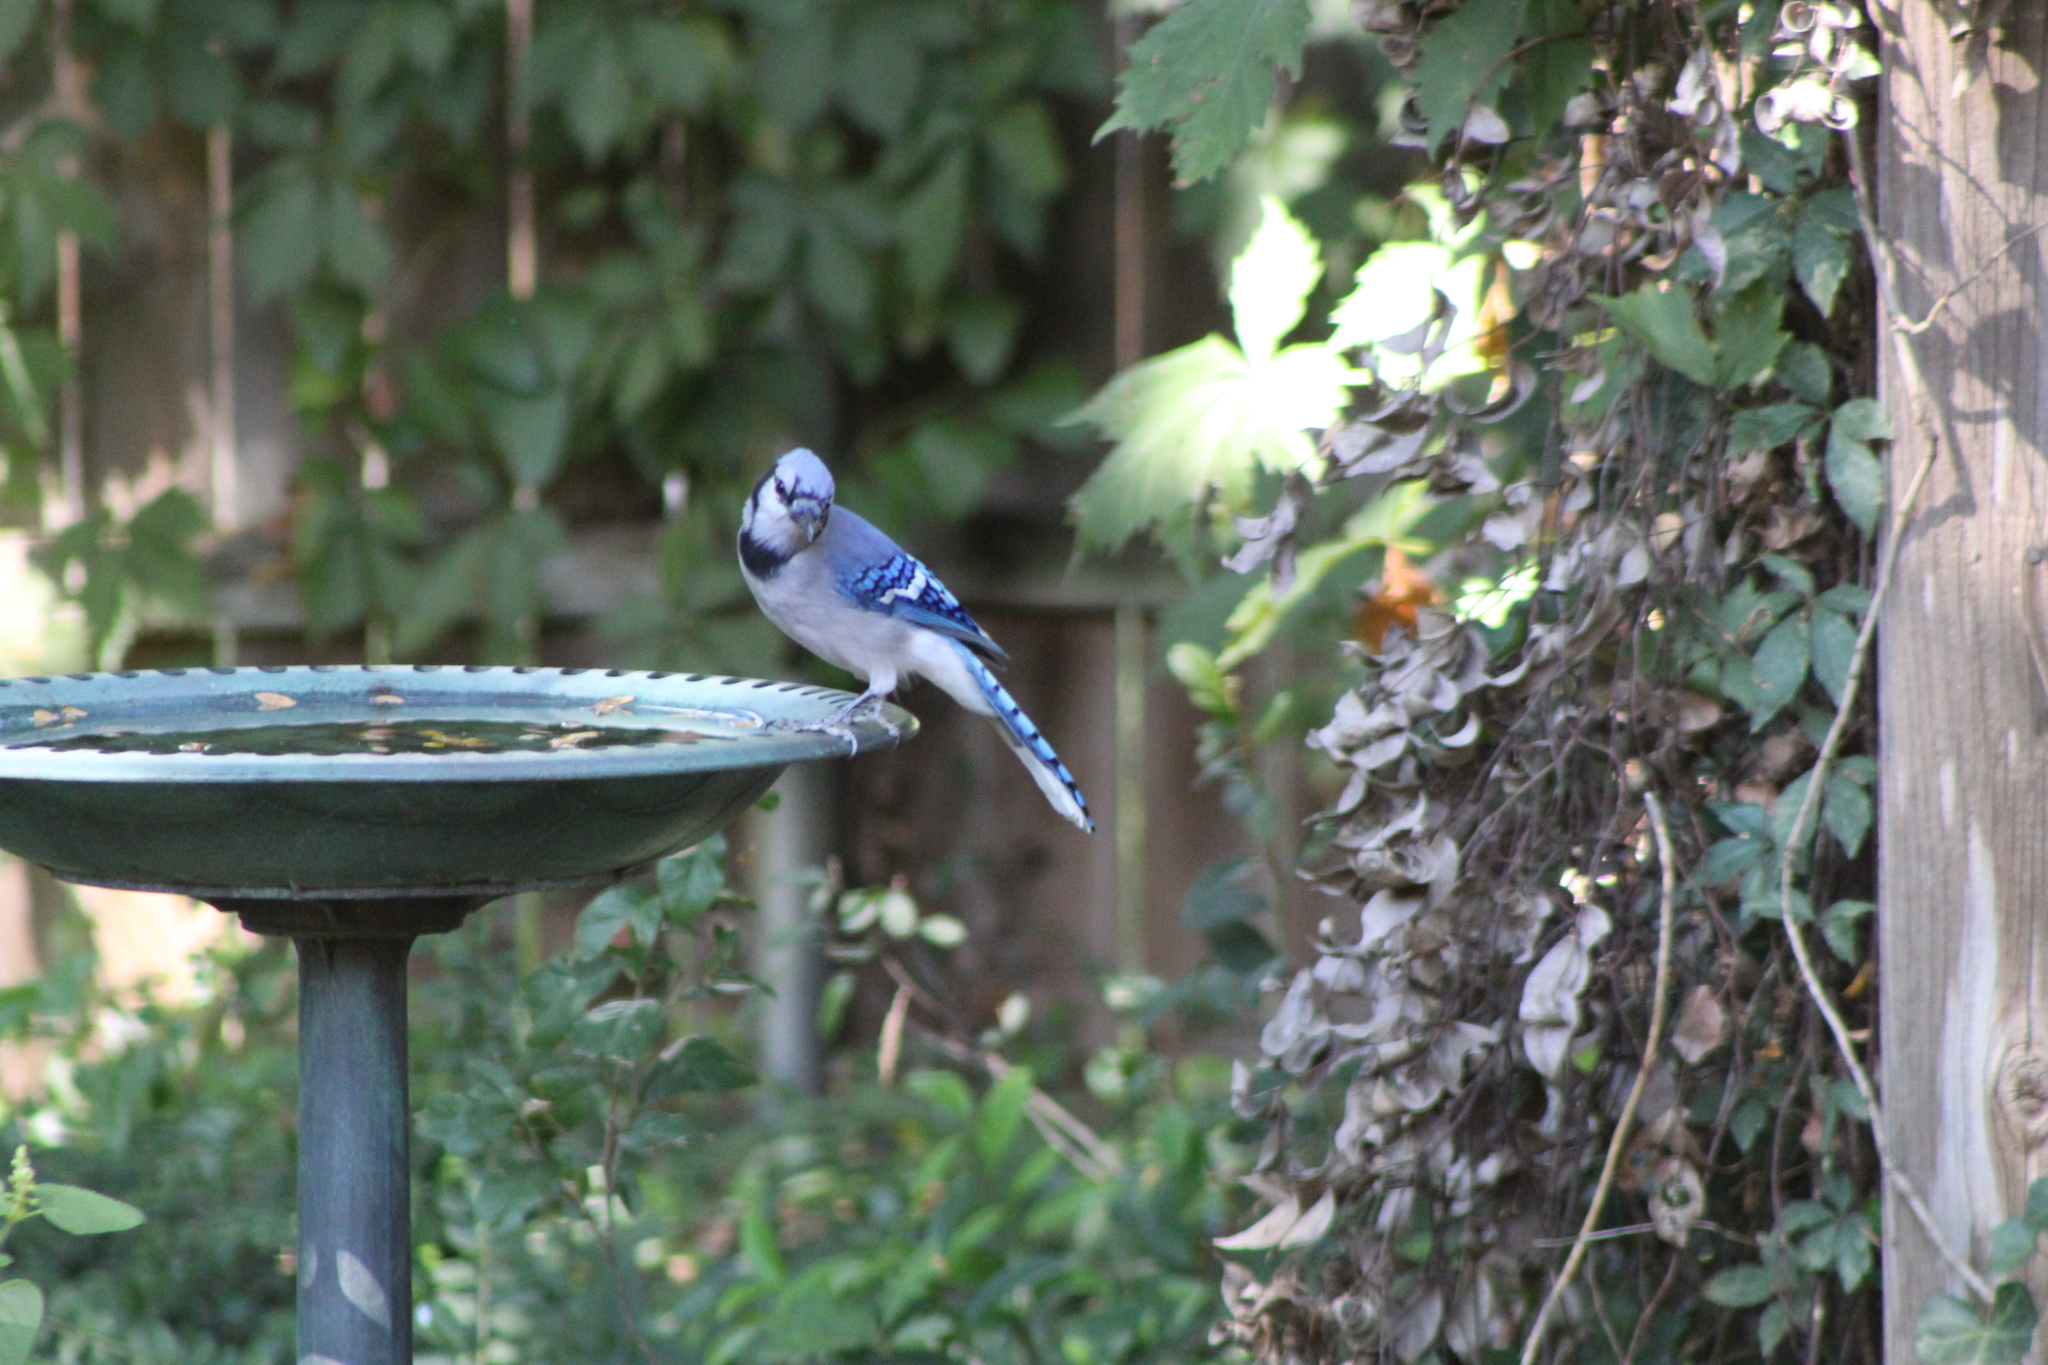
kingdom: Animalia
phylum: Chordata
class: Aves
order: Passeriformes
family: Corvidae
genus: Cyanocitta
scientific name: Cyanocitta cristata
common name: Blue jay
